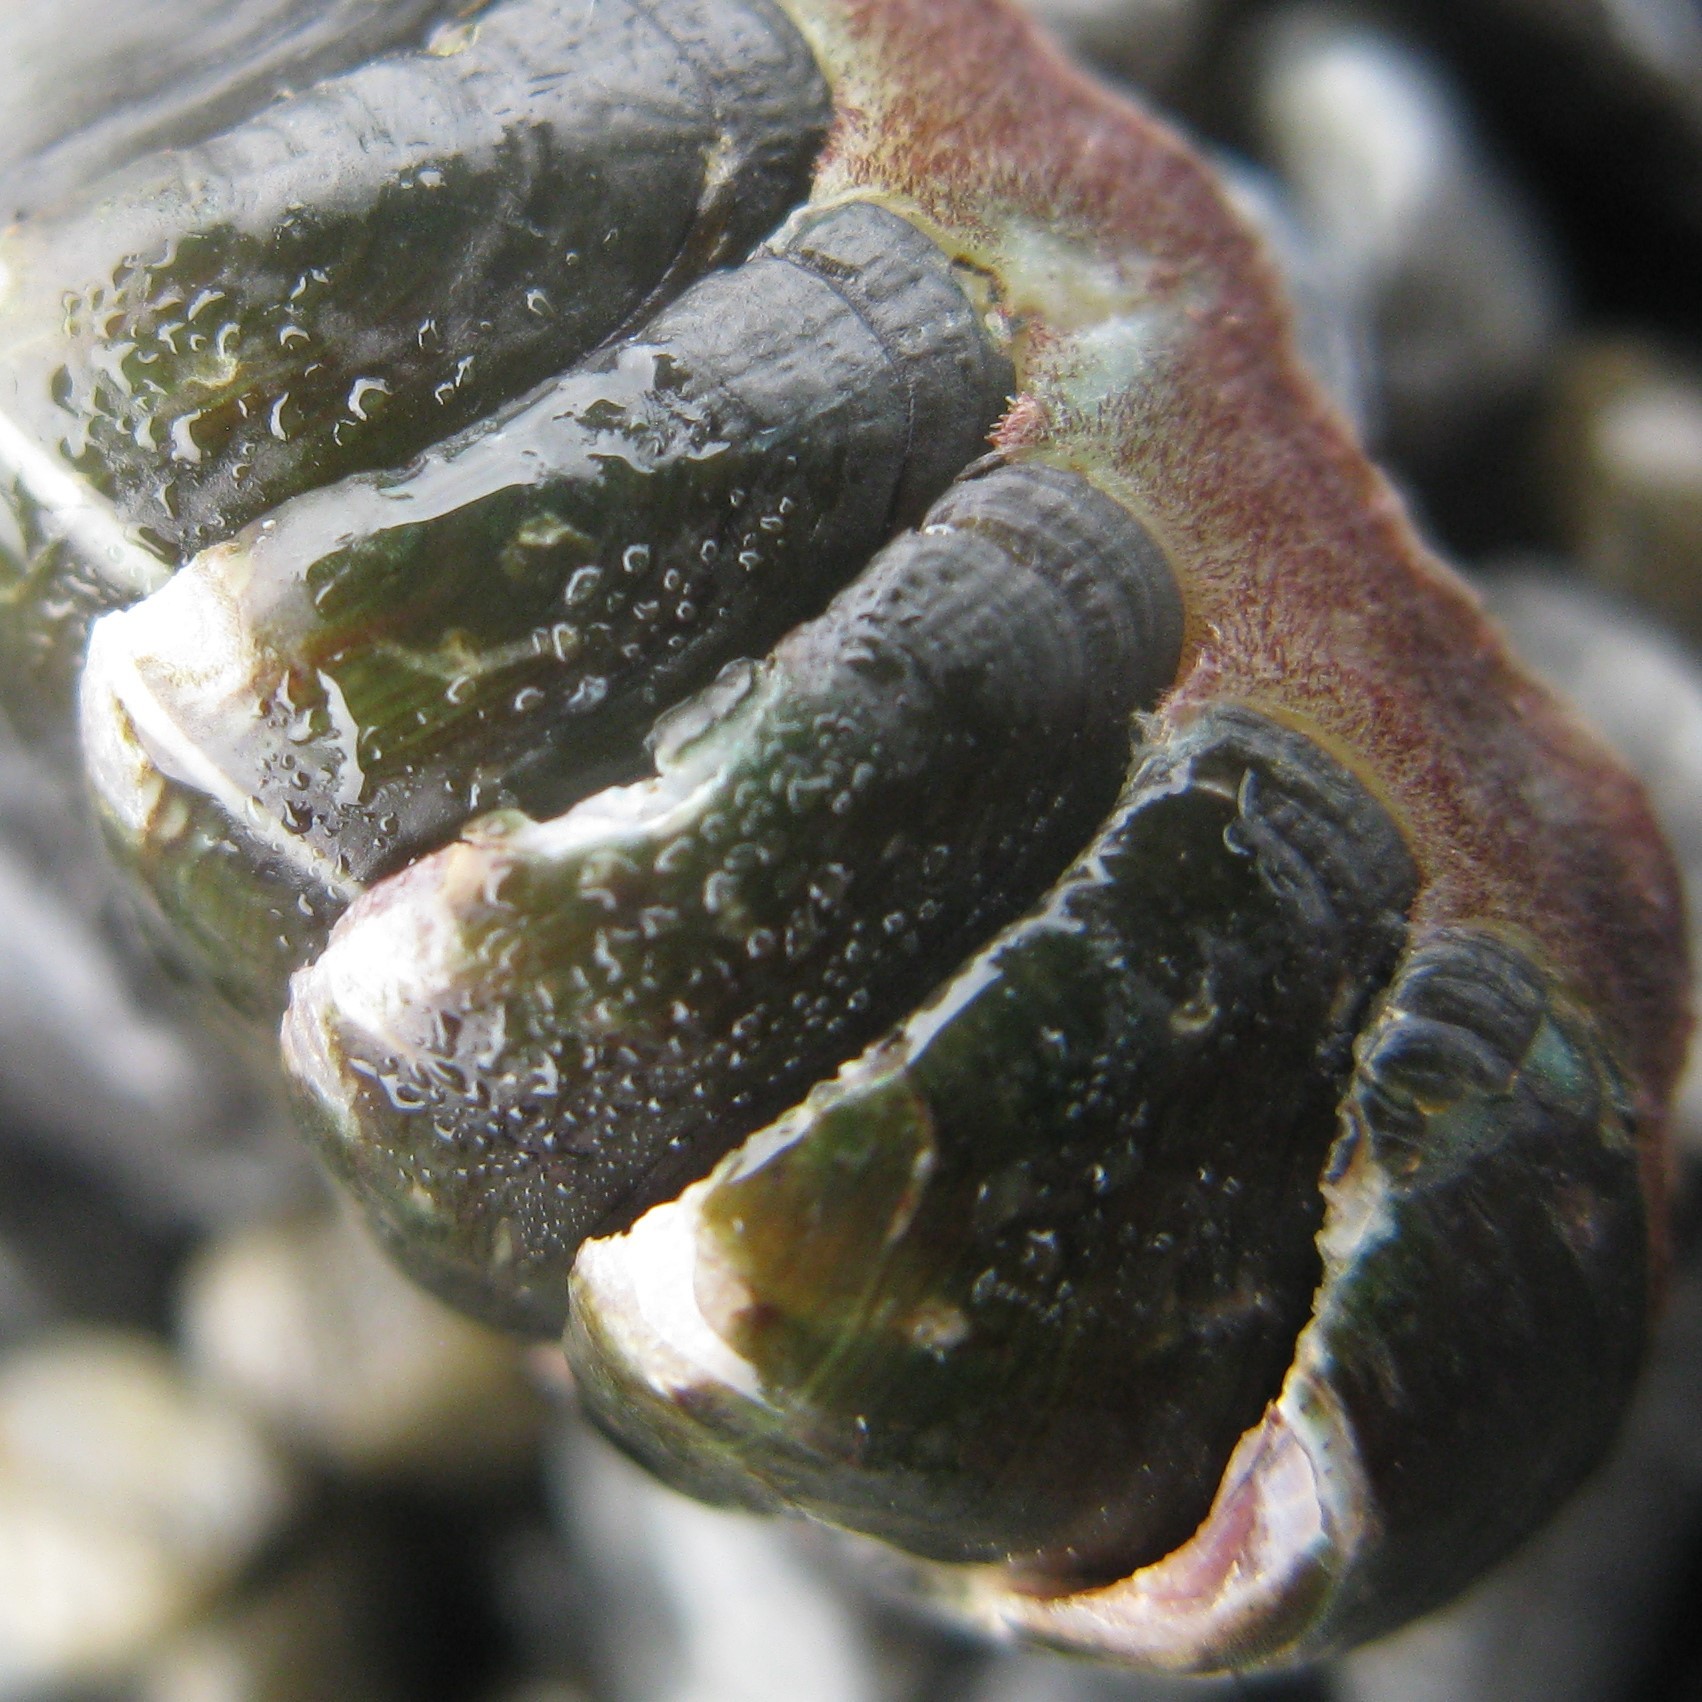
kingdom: Animalia
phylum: Mollusca
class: Polyplacophora
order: Chitonida
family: Ischnochitonidae
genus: Ischnochiton
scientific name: Ischnochiton maorianus
